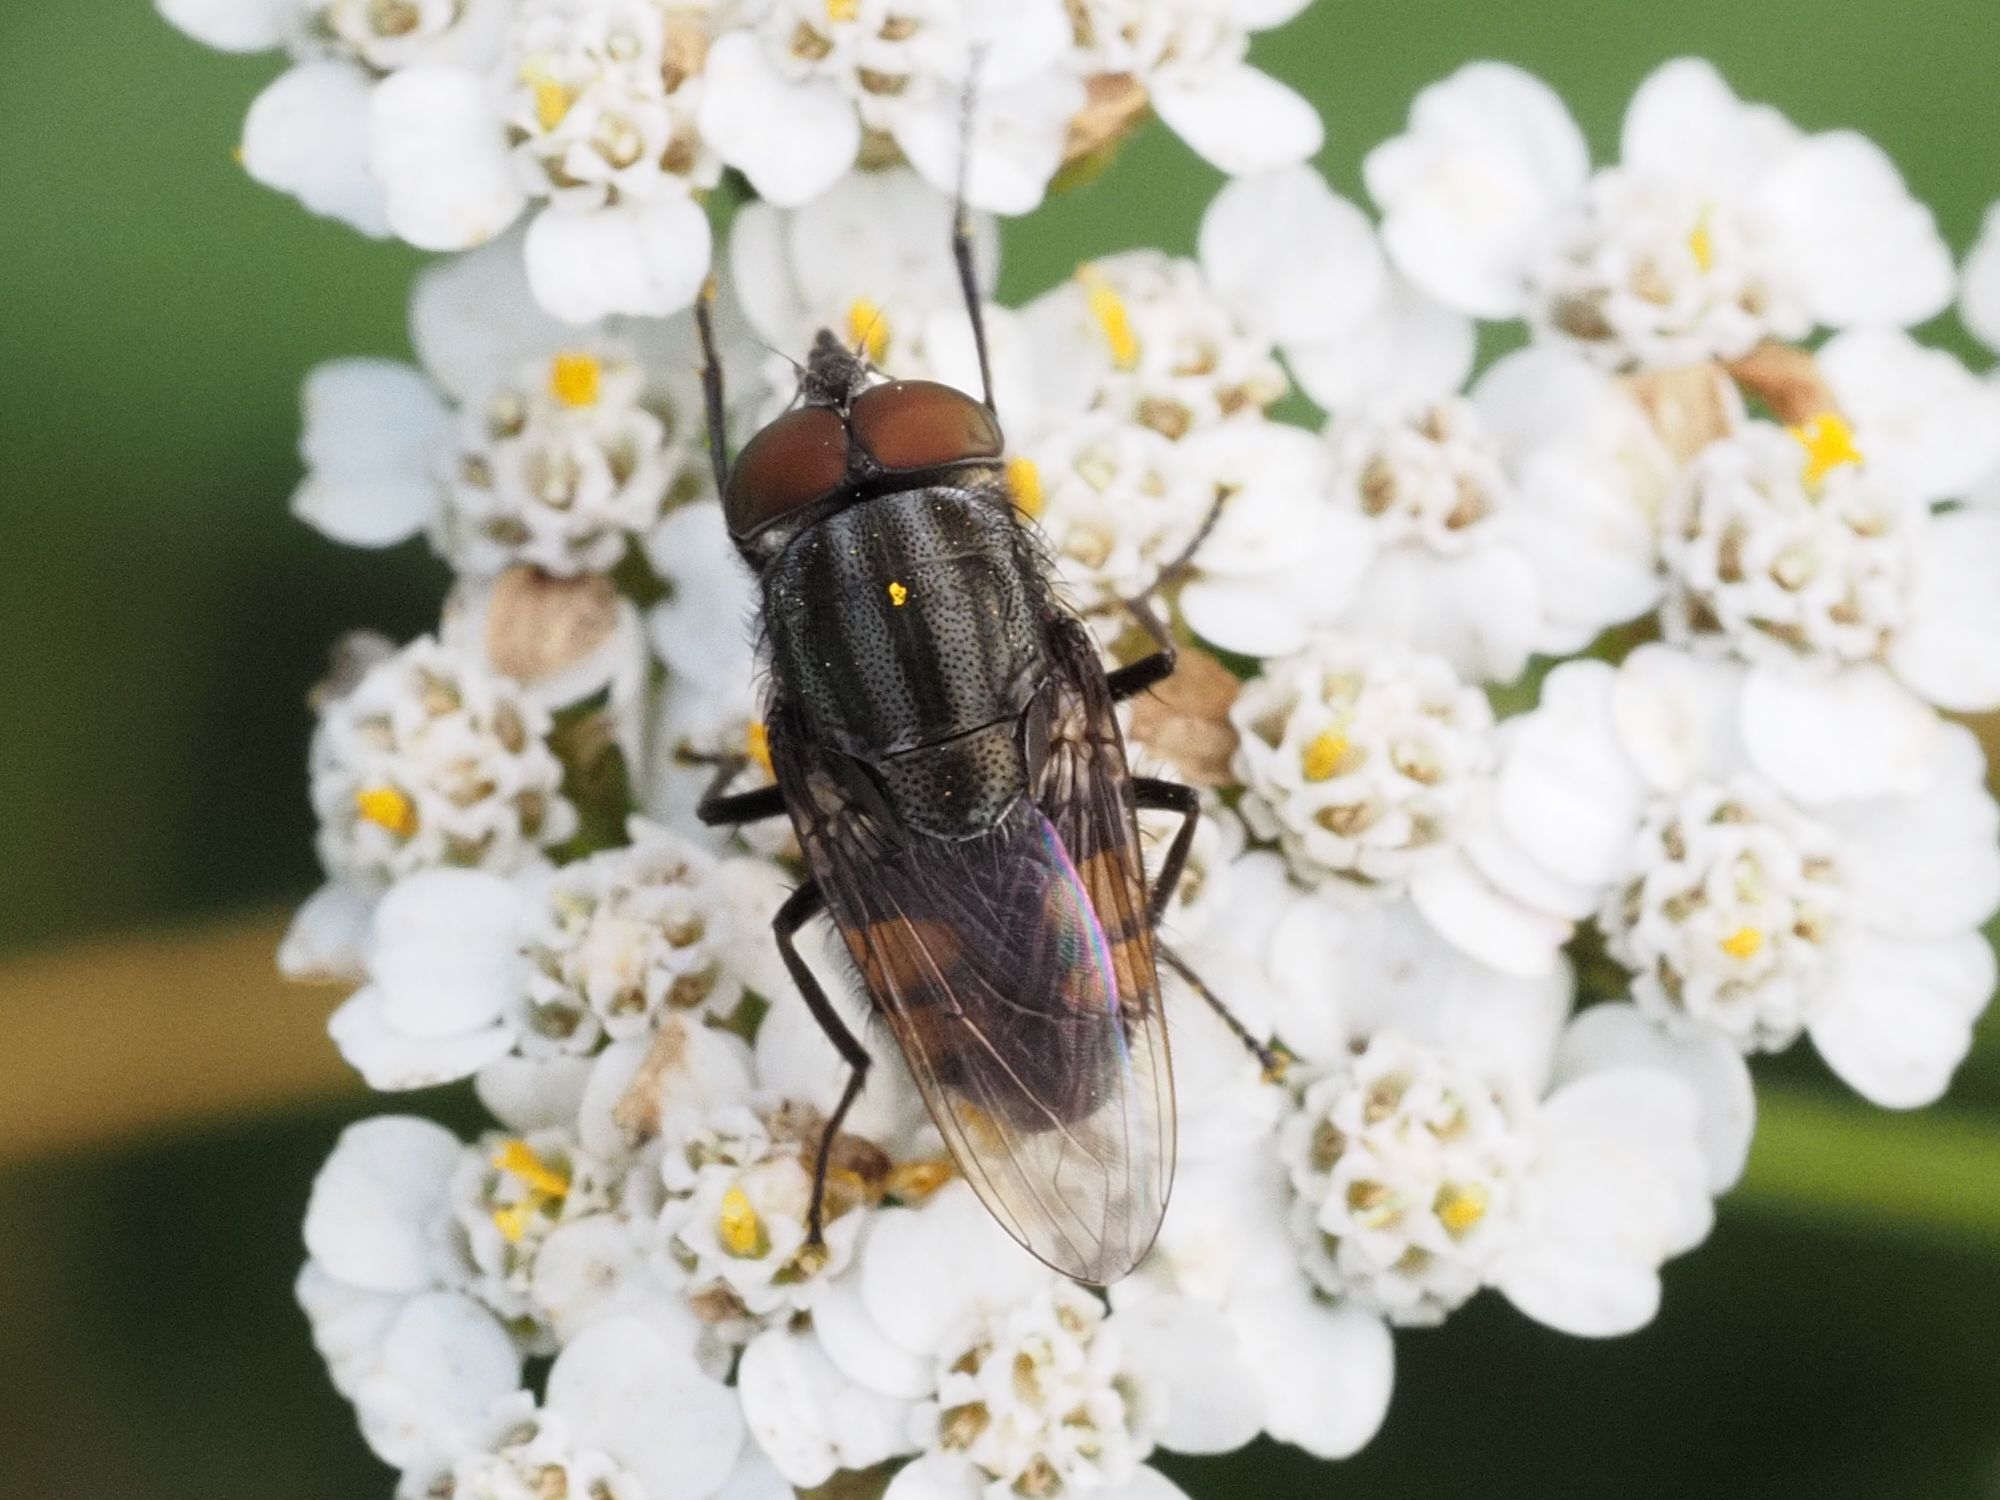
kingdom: Animalia
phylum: Arthropoda
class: Insecta
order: Diptera
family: Calliphoridae
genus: Stomorhina
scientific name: Stomorhina lunata
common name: Locust blowfly
